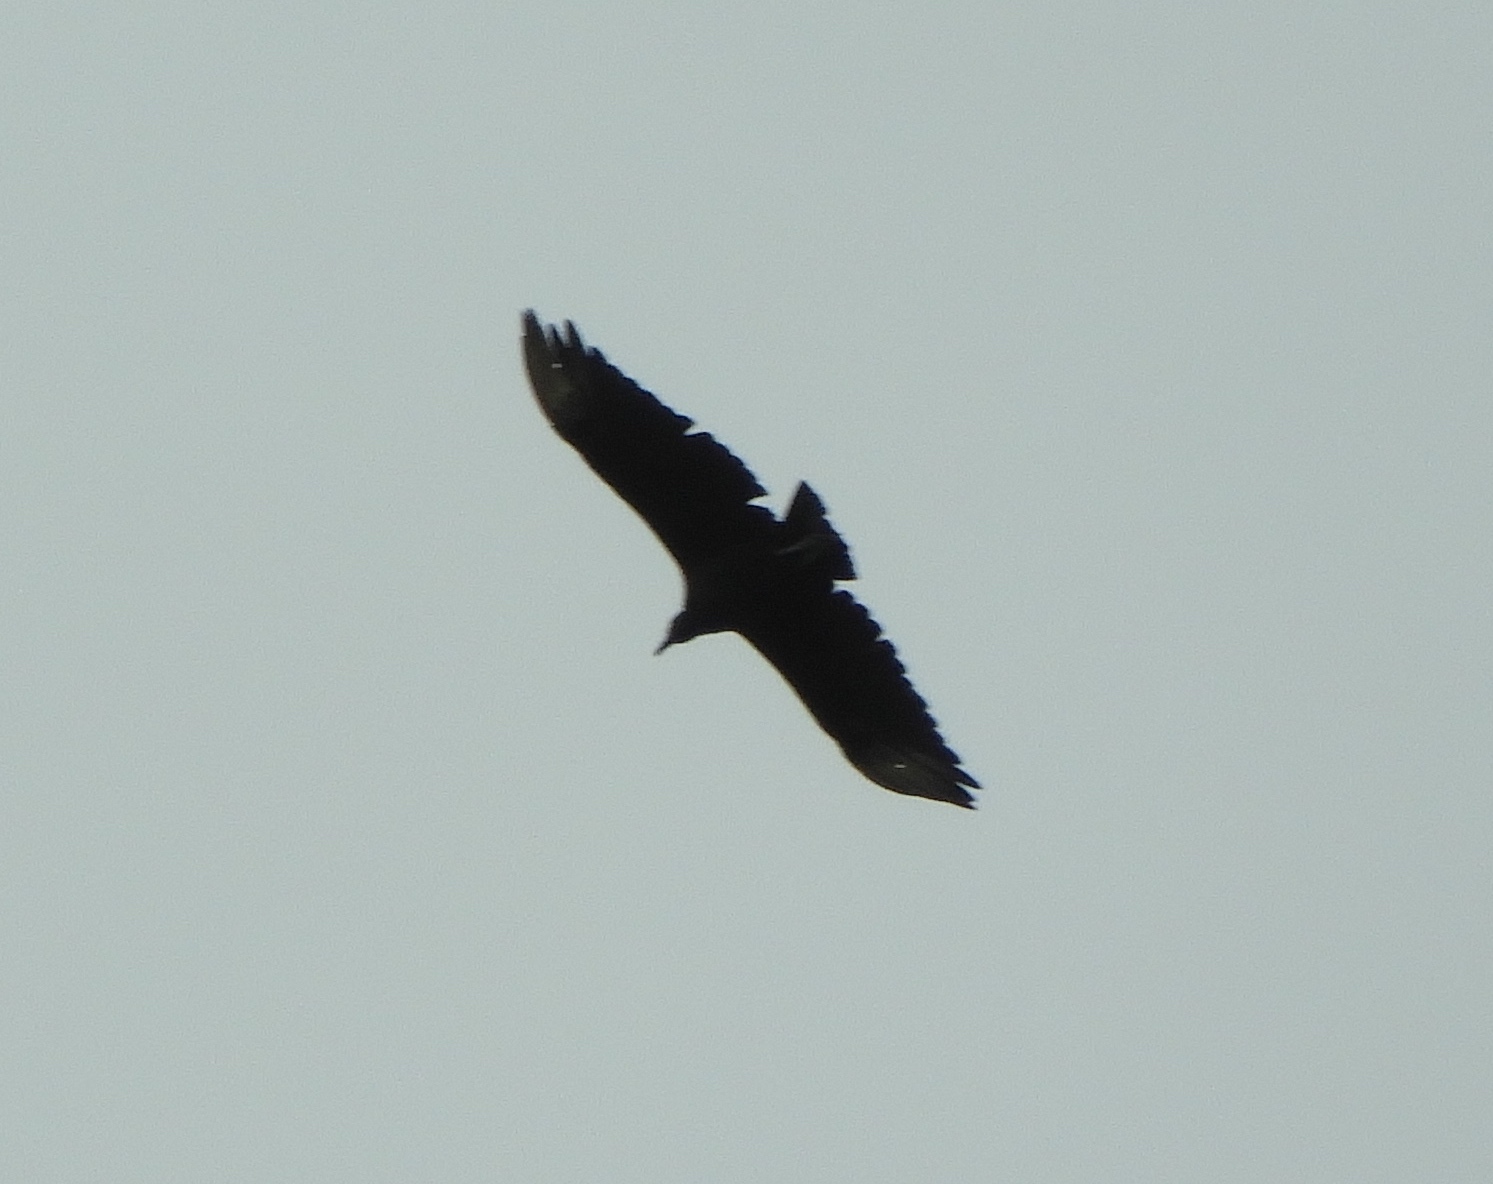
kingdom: Animalia
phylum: Chordata
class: Aves
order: Accipitriformes
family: Cathartidae
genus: Coragyps
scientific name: Coragyps atratus
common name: Black vulture
